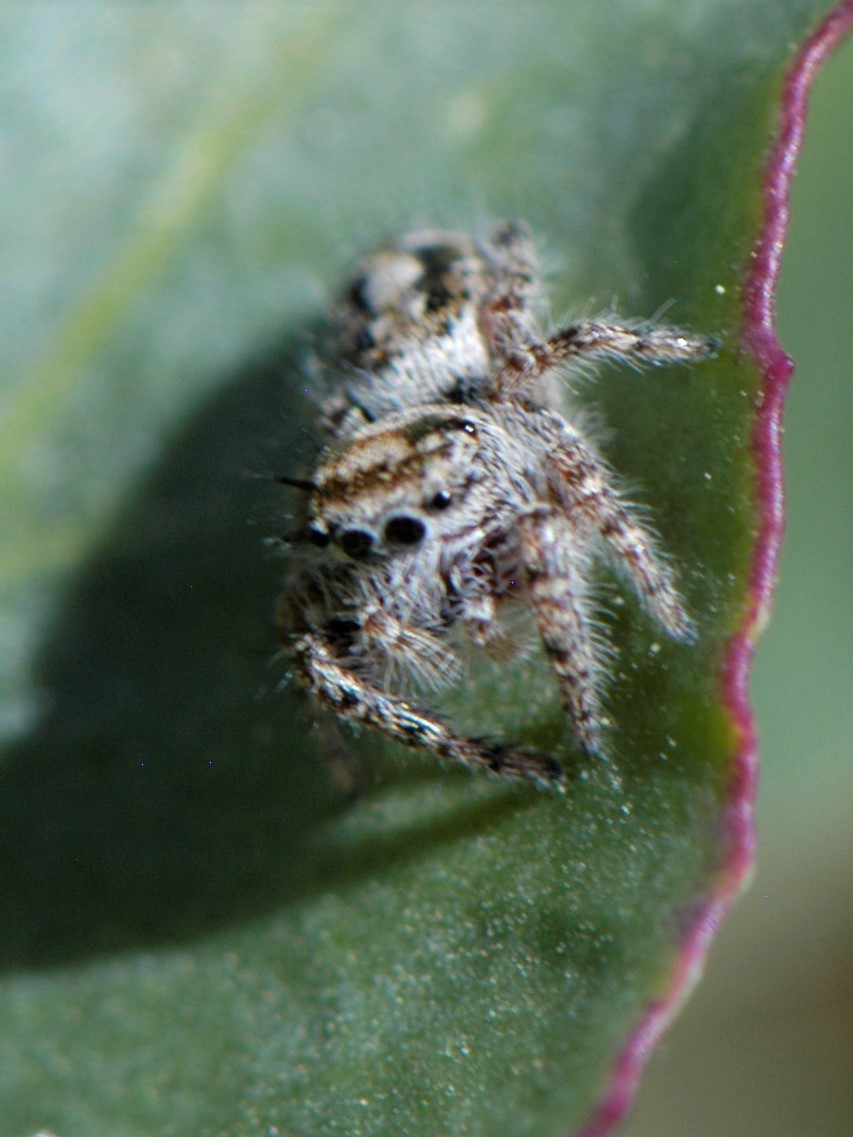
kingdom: Animalia
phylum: Arthropoda
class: Arachnida
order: Araneae
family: Salticidae
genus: Phidippus
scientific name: Phidippus comatus
